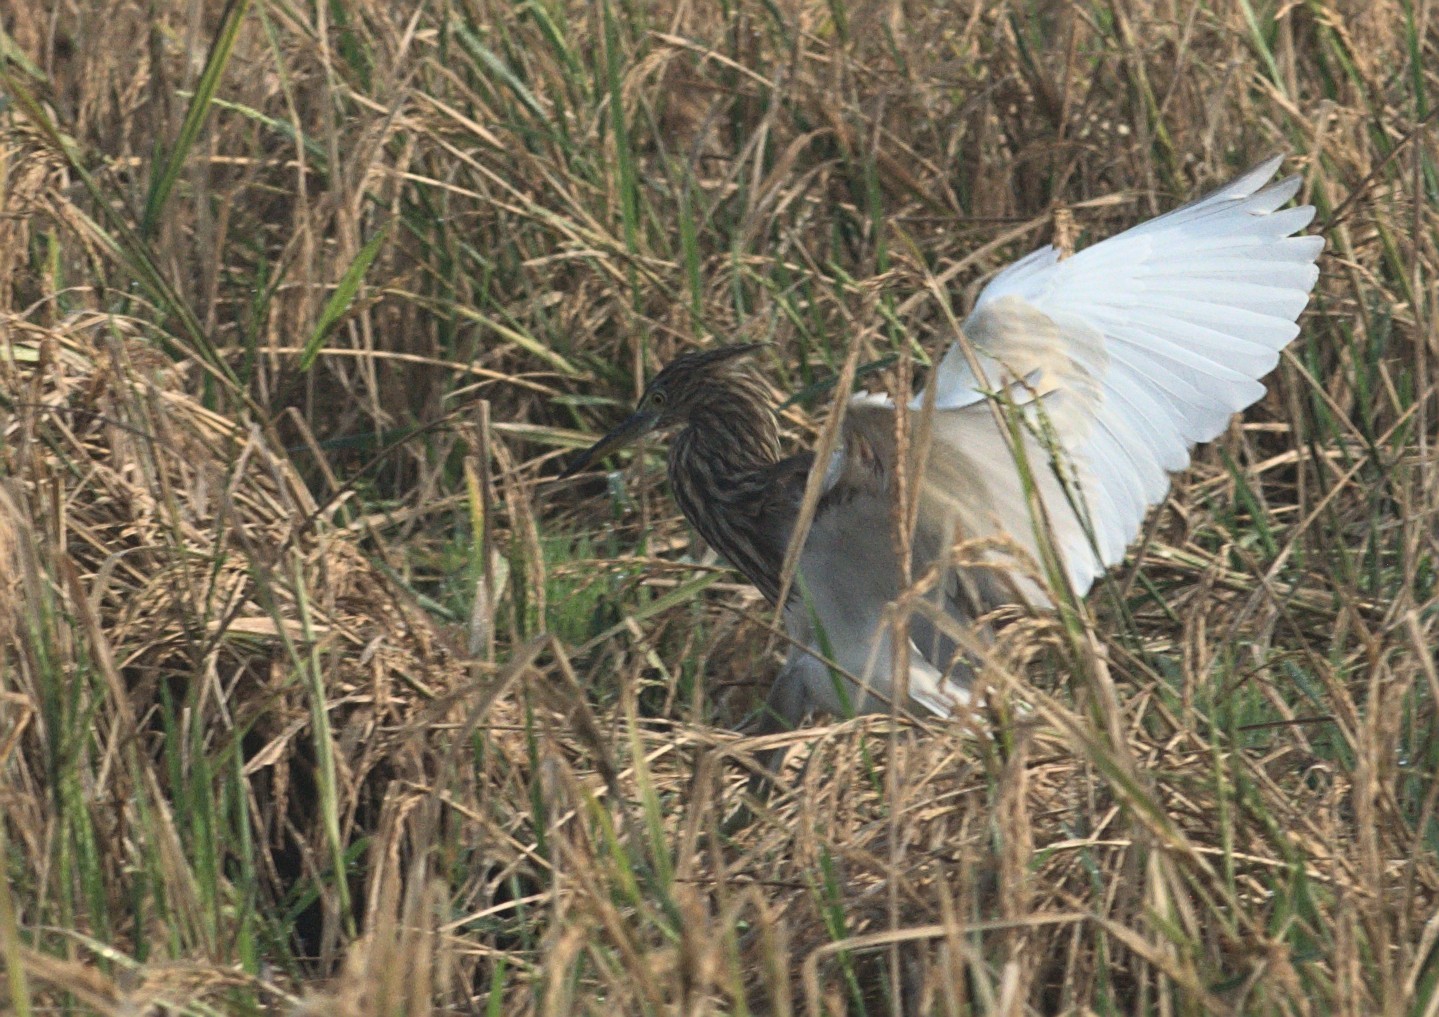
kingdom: Animalia
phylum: Chordata
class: Aves
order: Pelecaniformes
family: Ardeidae
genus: Ardeola
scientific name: Ardeola grayii
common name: Indian pond heron
